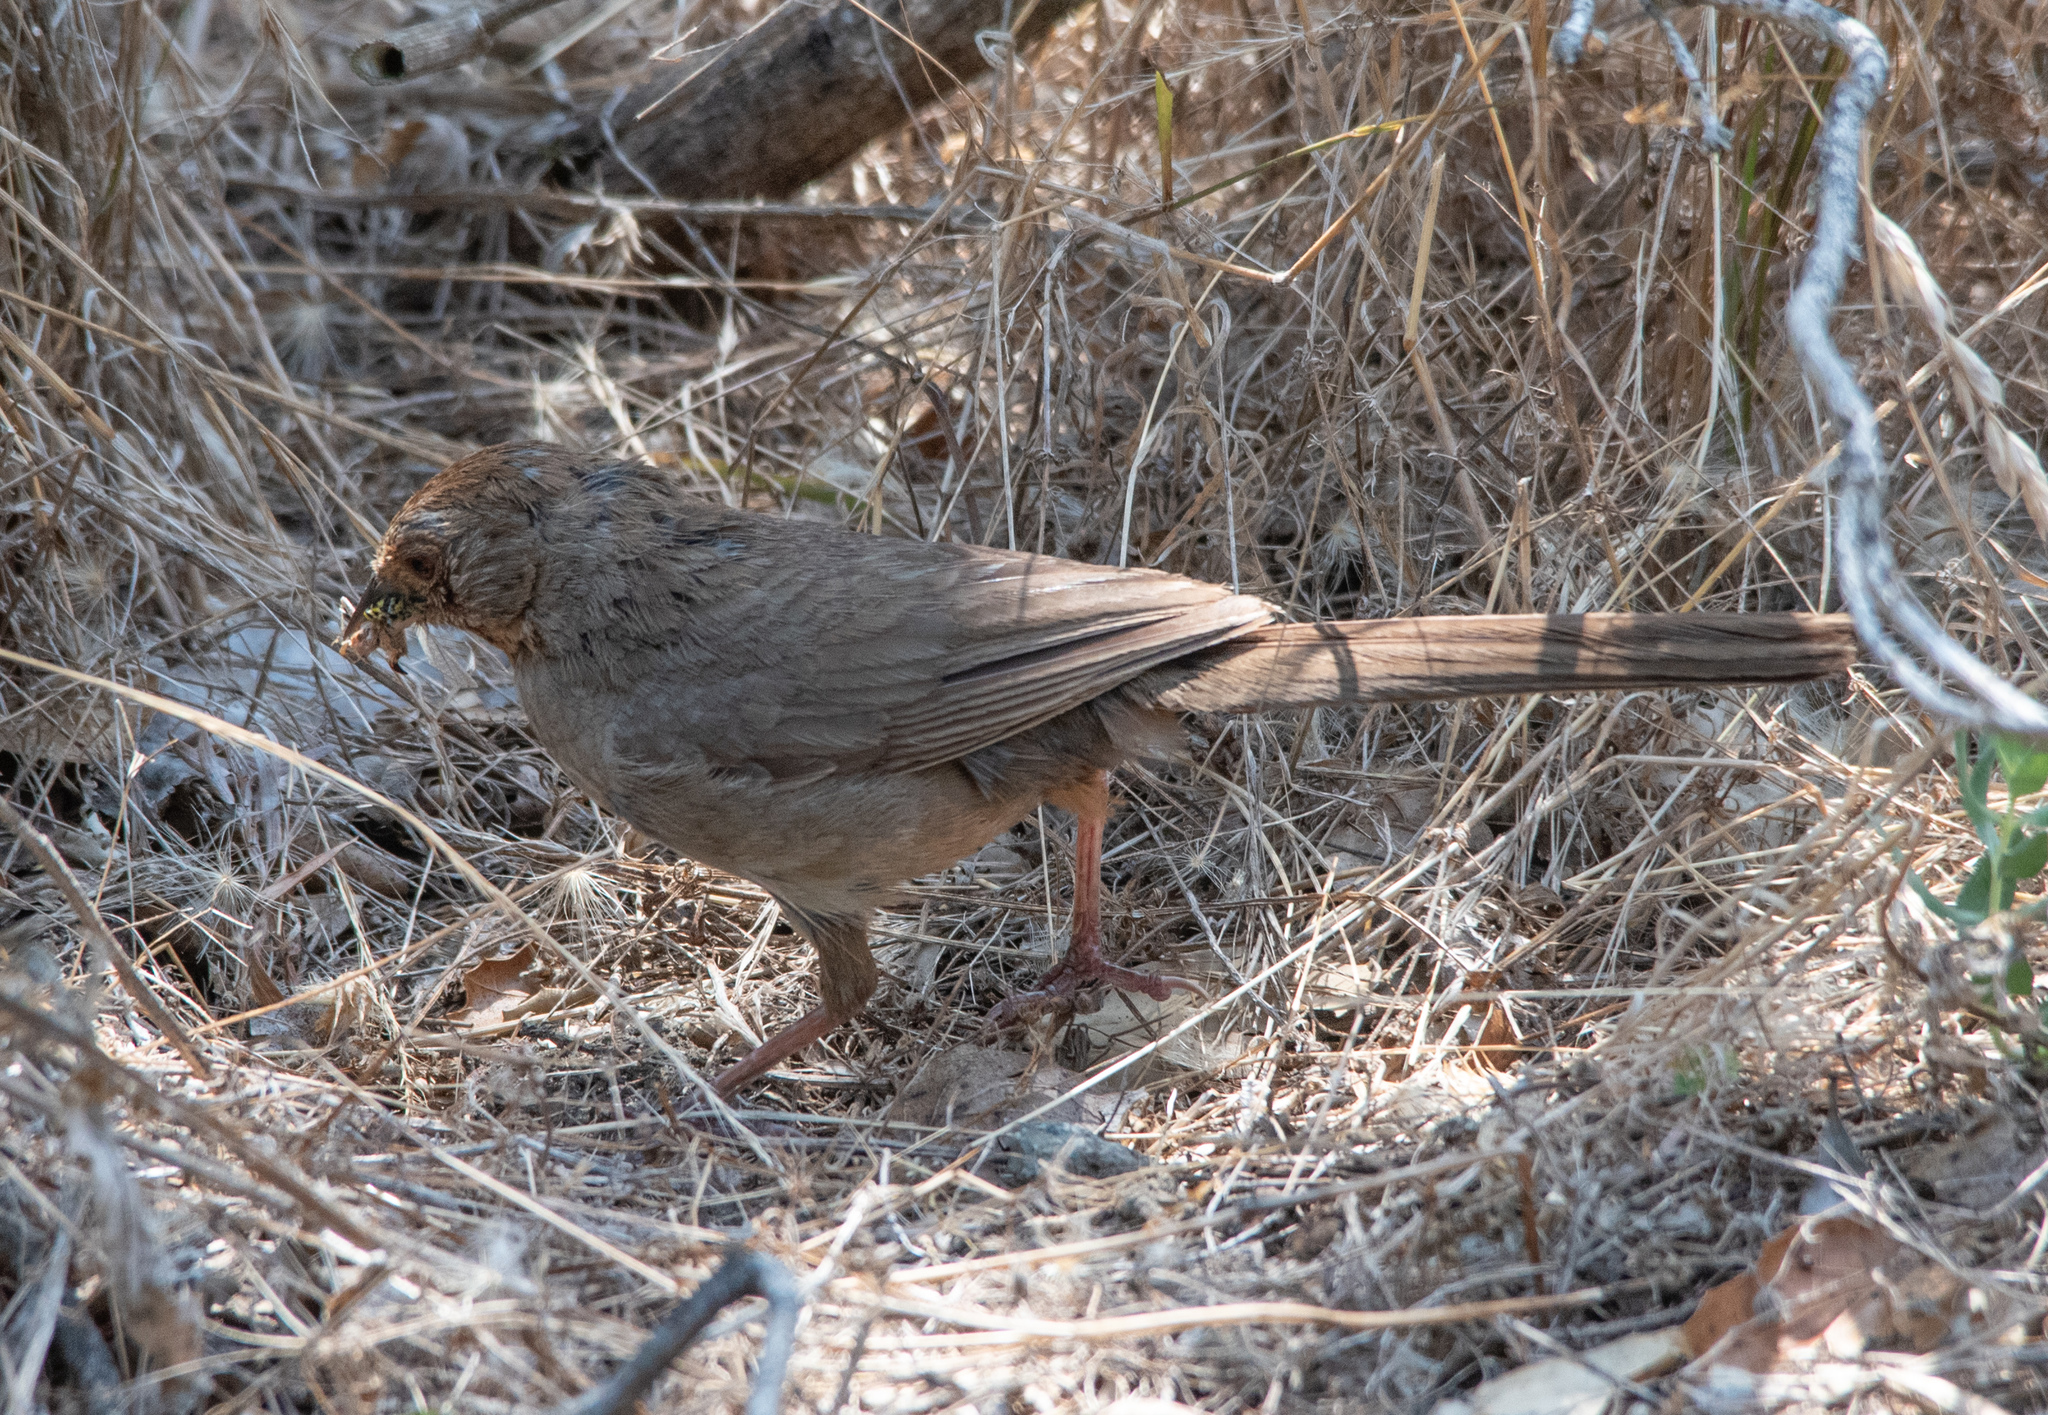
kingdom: Animalia
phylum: Chordata
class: Aves
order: Passeriformes
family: Passerellidae
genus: Melozone
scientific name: Melozone crissalis
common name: California towhee
